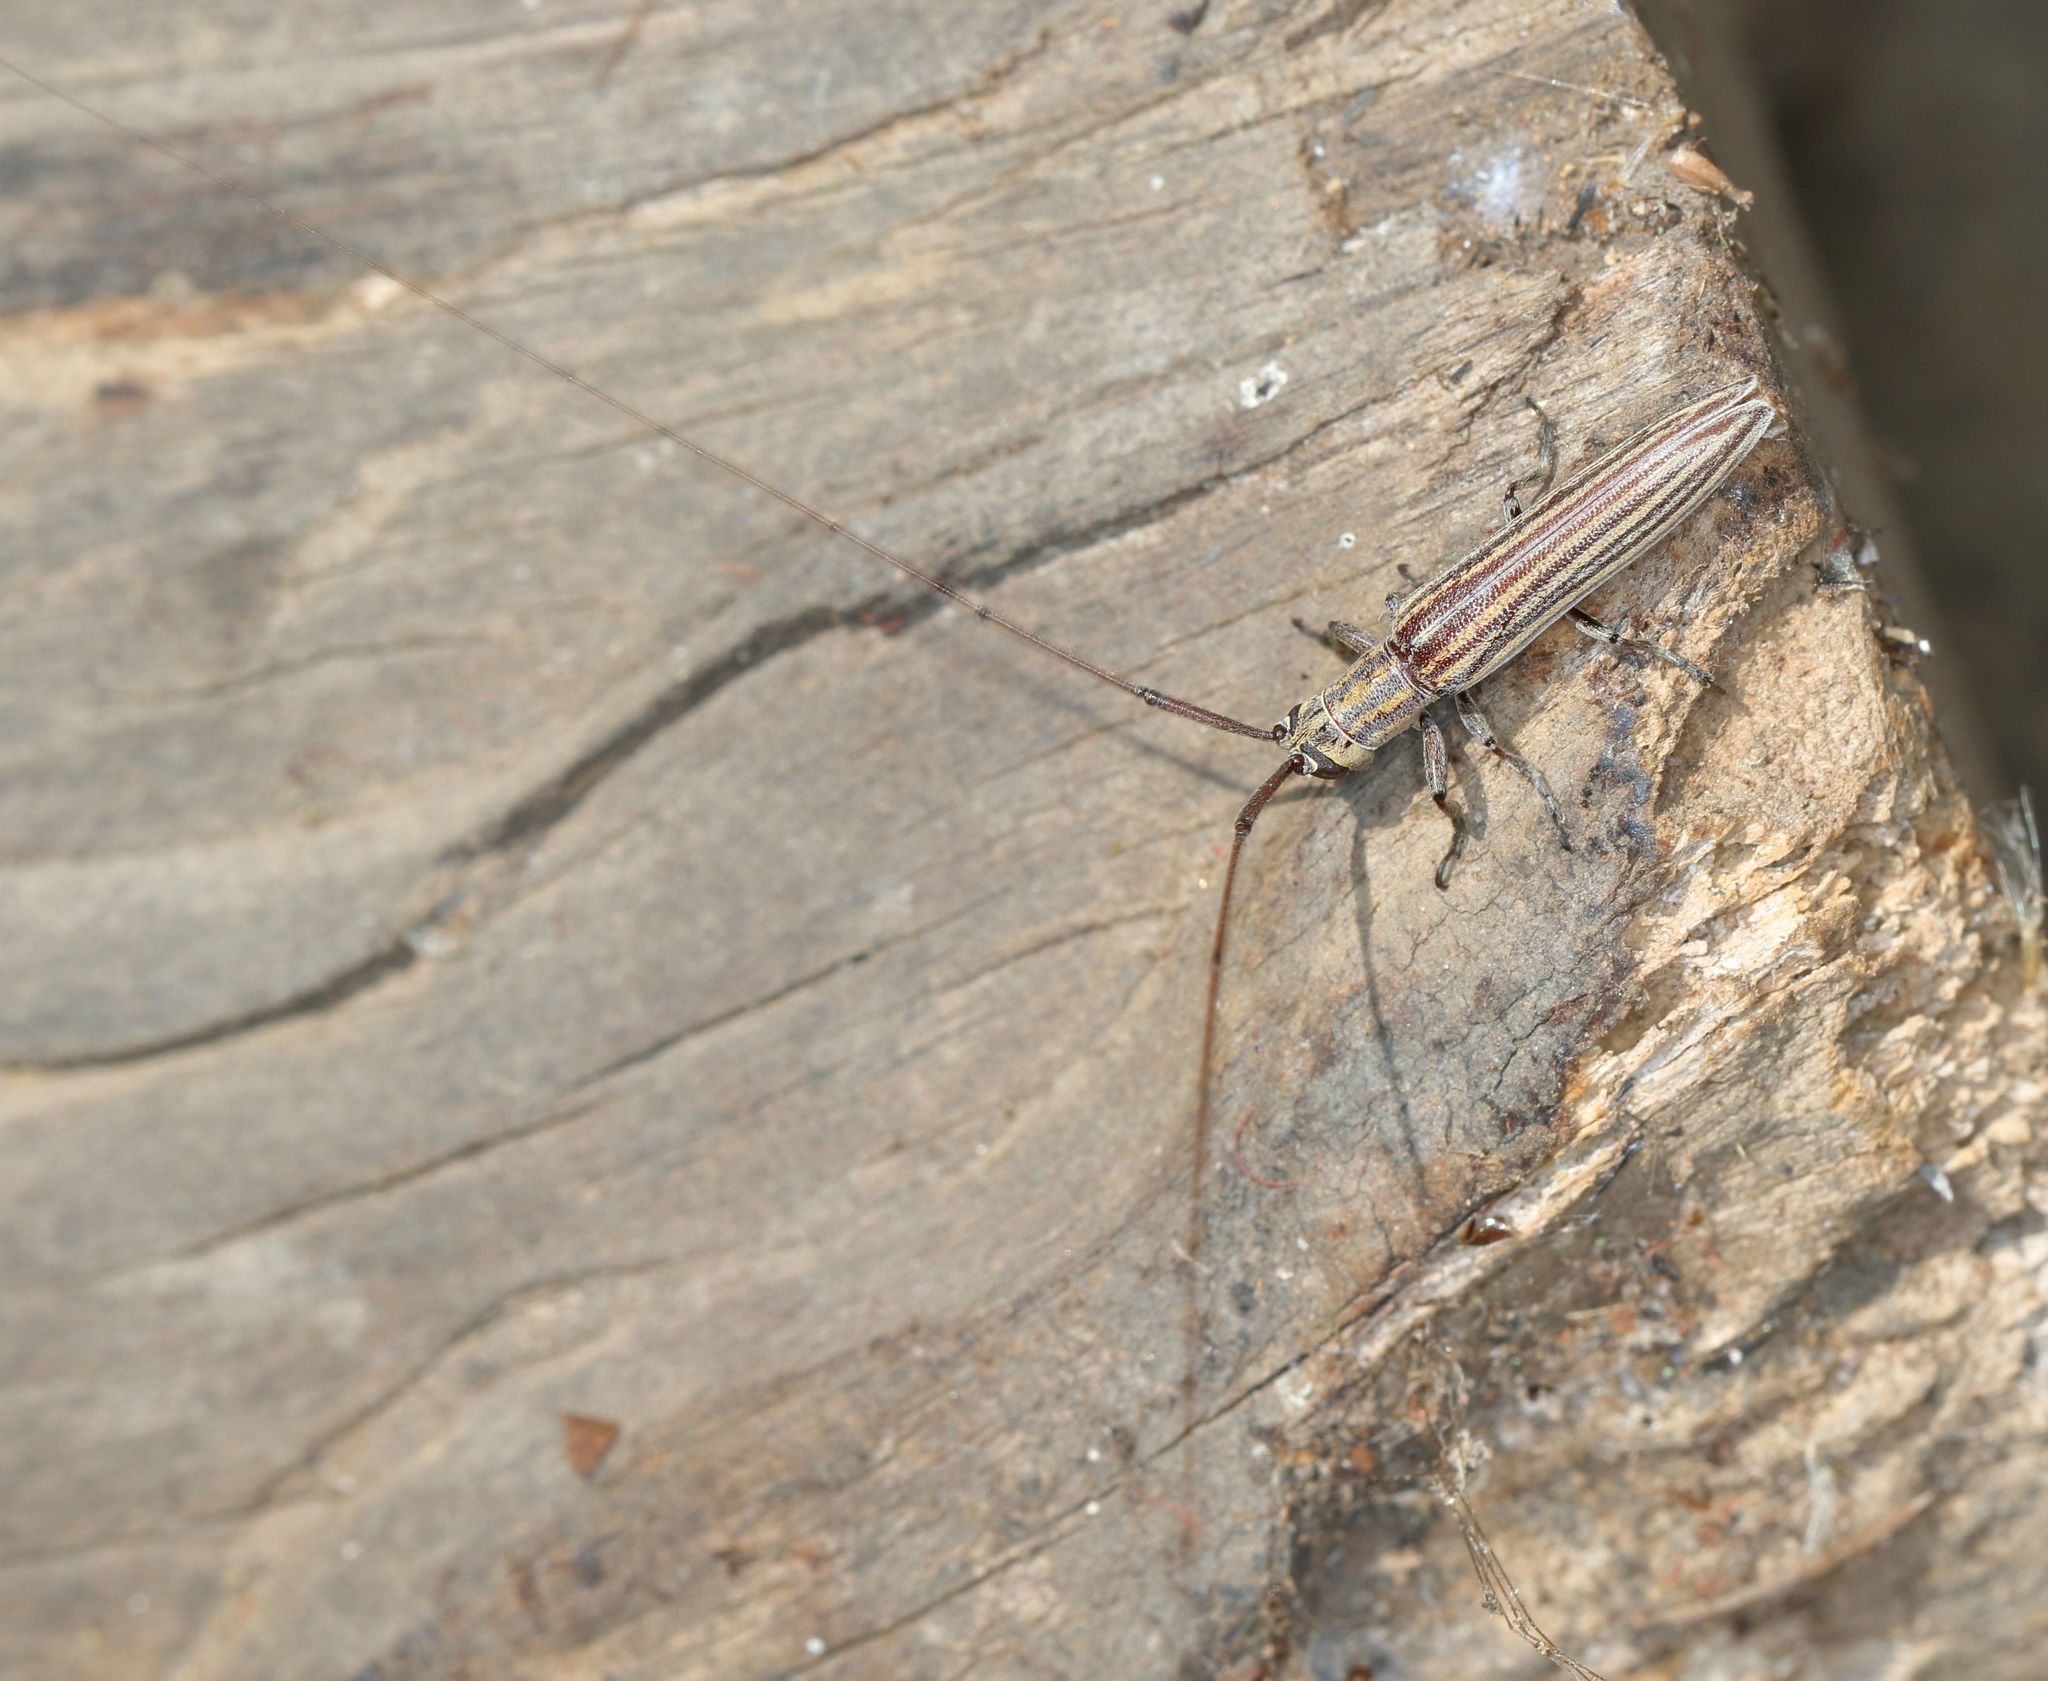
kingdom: Animalia
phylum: Arthropoda
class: Insecta
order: Coleoptera
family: Cerambycidae
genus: Hyllisia
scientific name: Hyllisia persimilis
